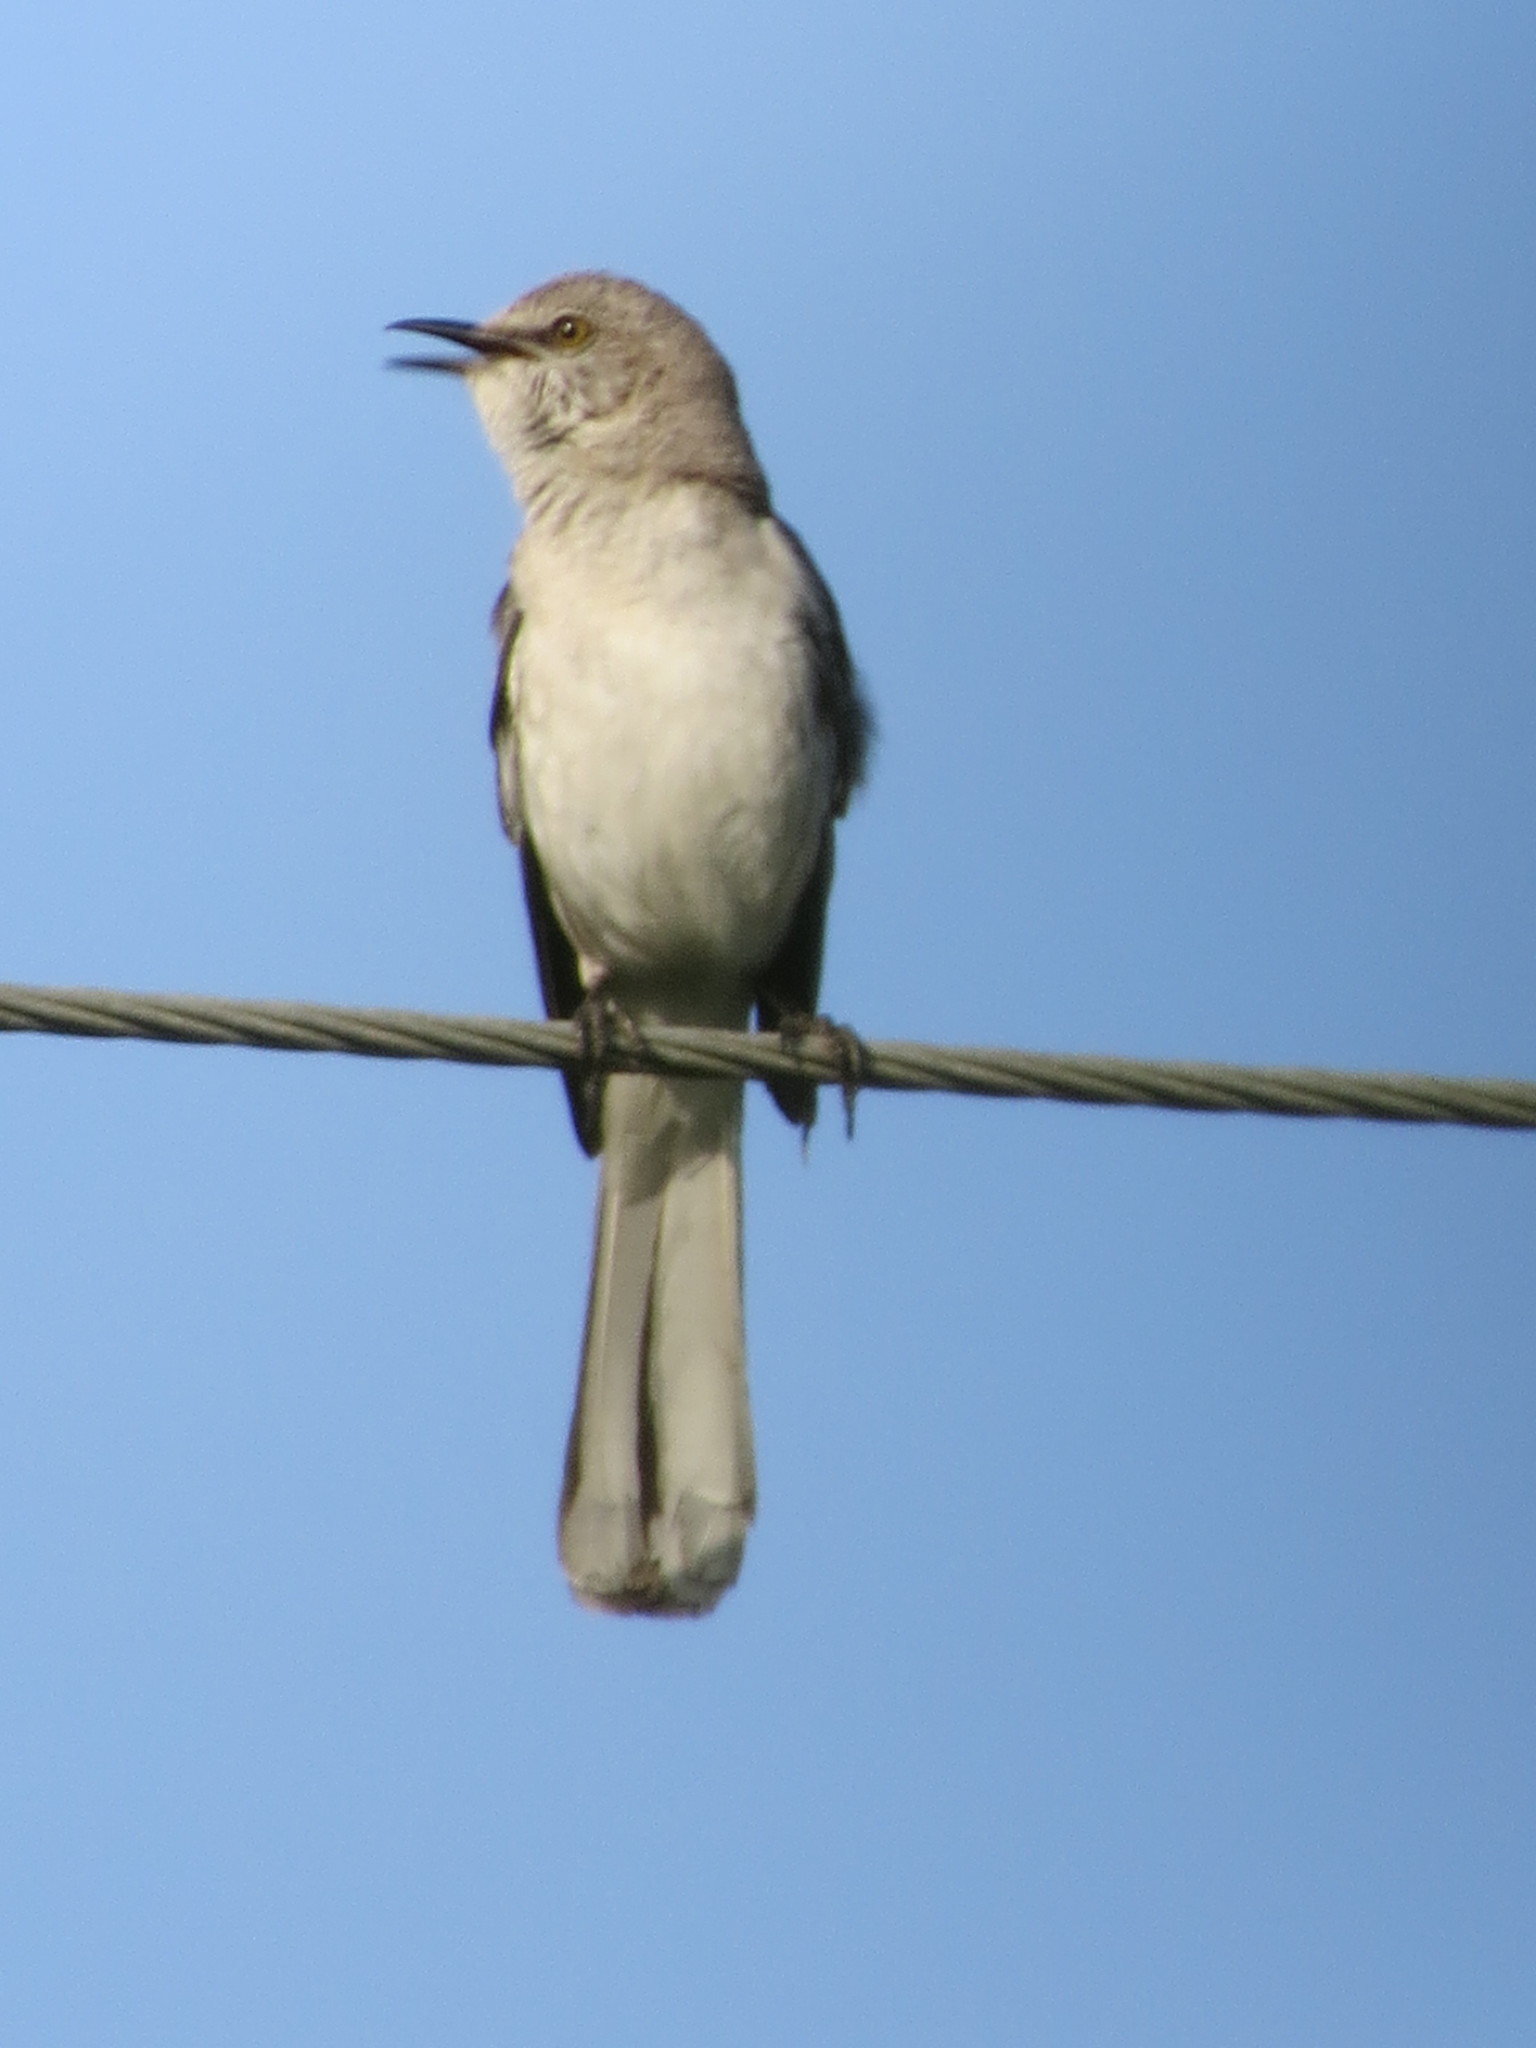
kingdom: Animalia
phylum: Chordata
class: Aves
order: Passeriformes
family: Mimidae
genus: Mimus
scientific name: Mimus polyglottos
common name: Northern mockingbird
